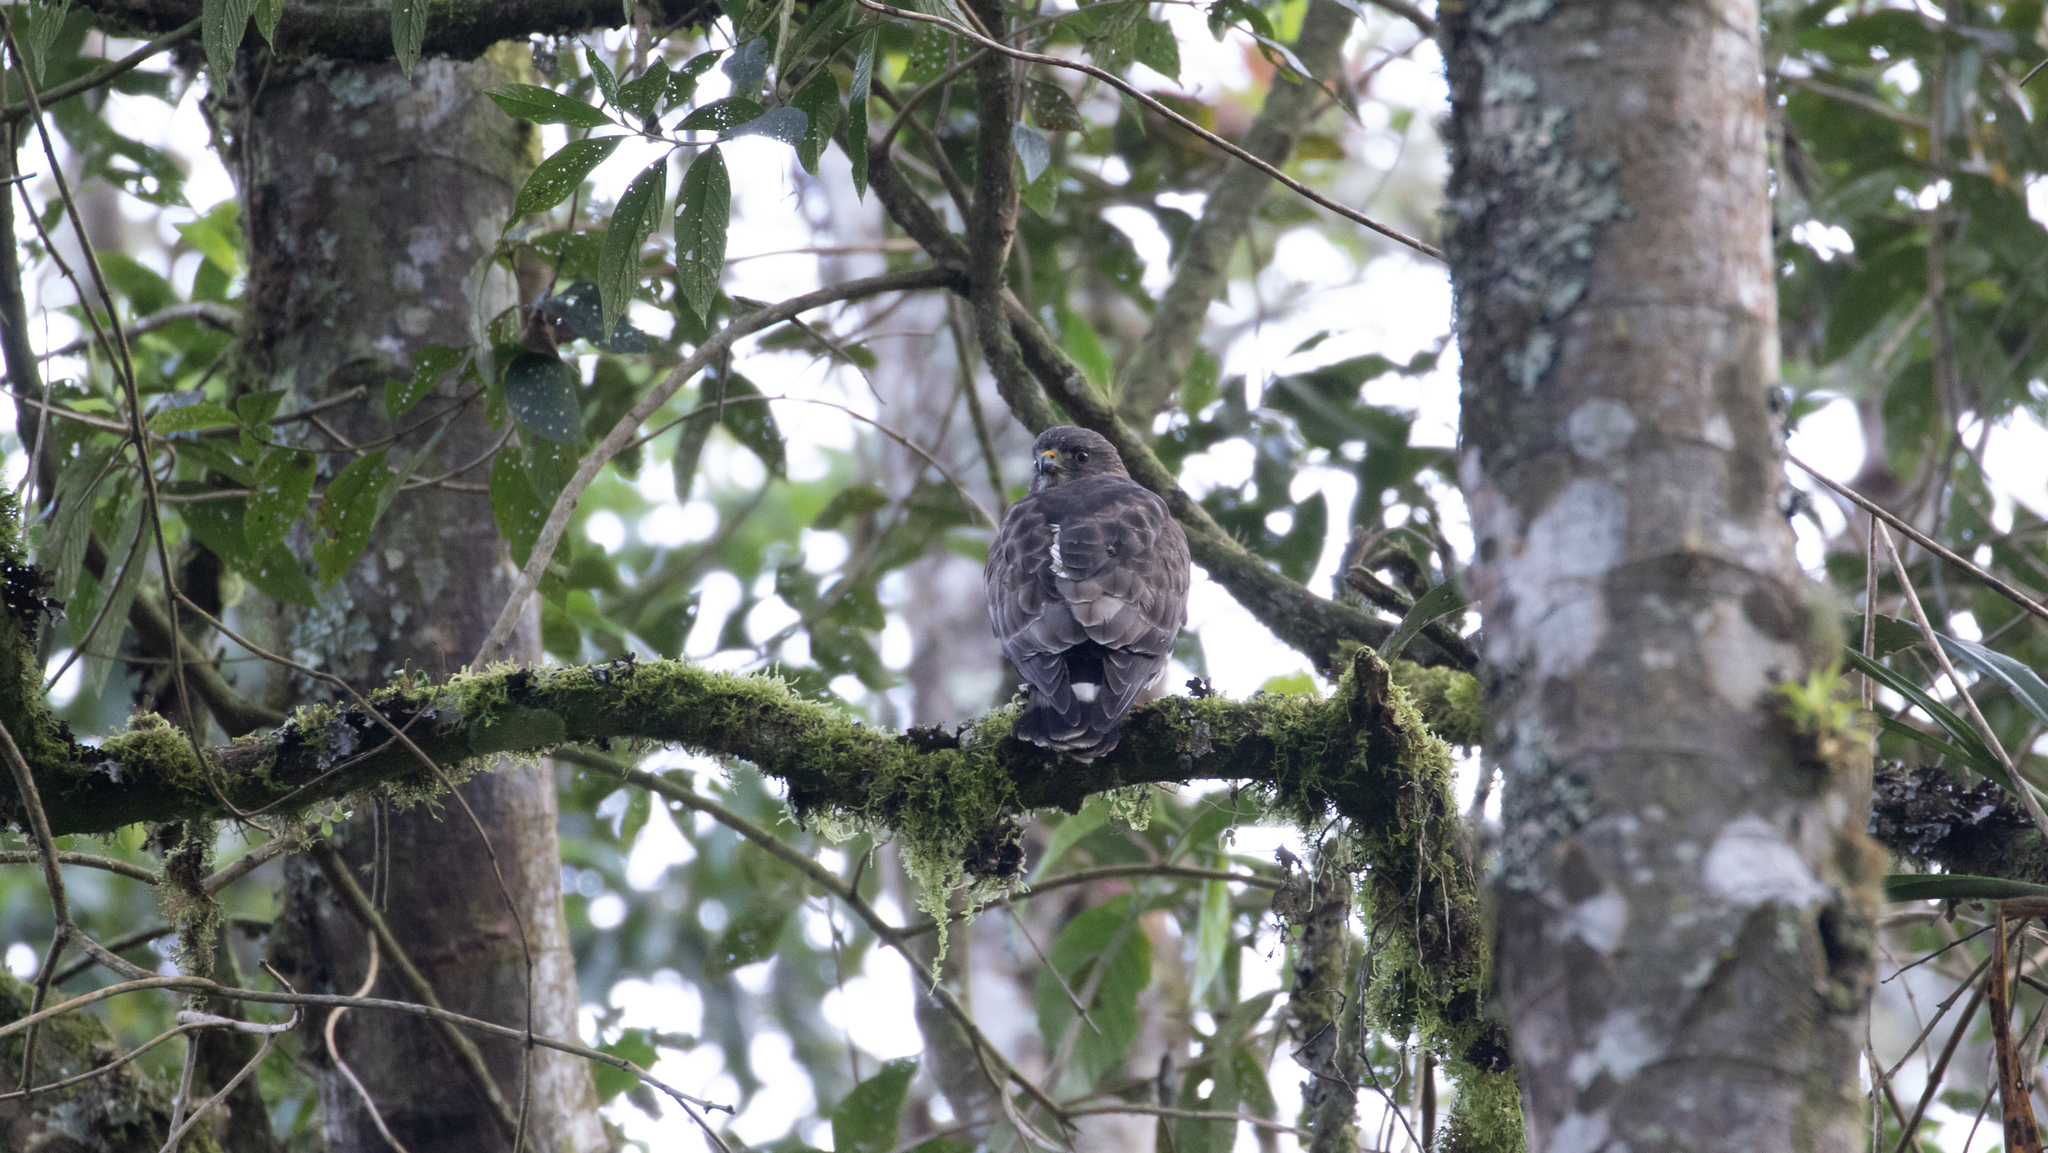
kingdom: Animalia
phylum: Chordata
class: Aves
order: Accipitriformes
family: Accipitridae
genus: Buteo
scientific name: Buteo platypterus
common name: Broad-winged hawk
